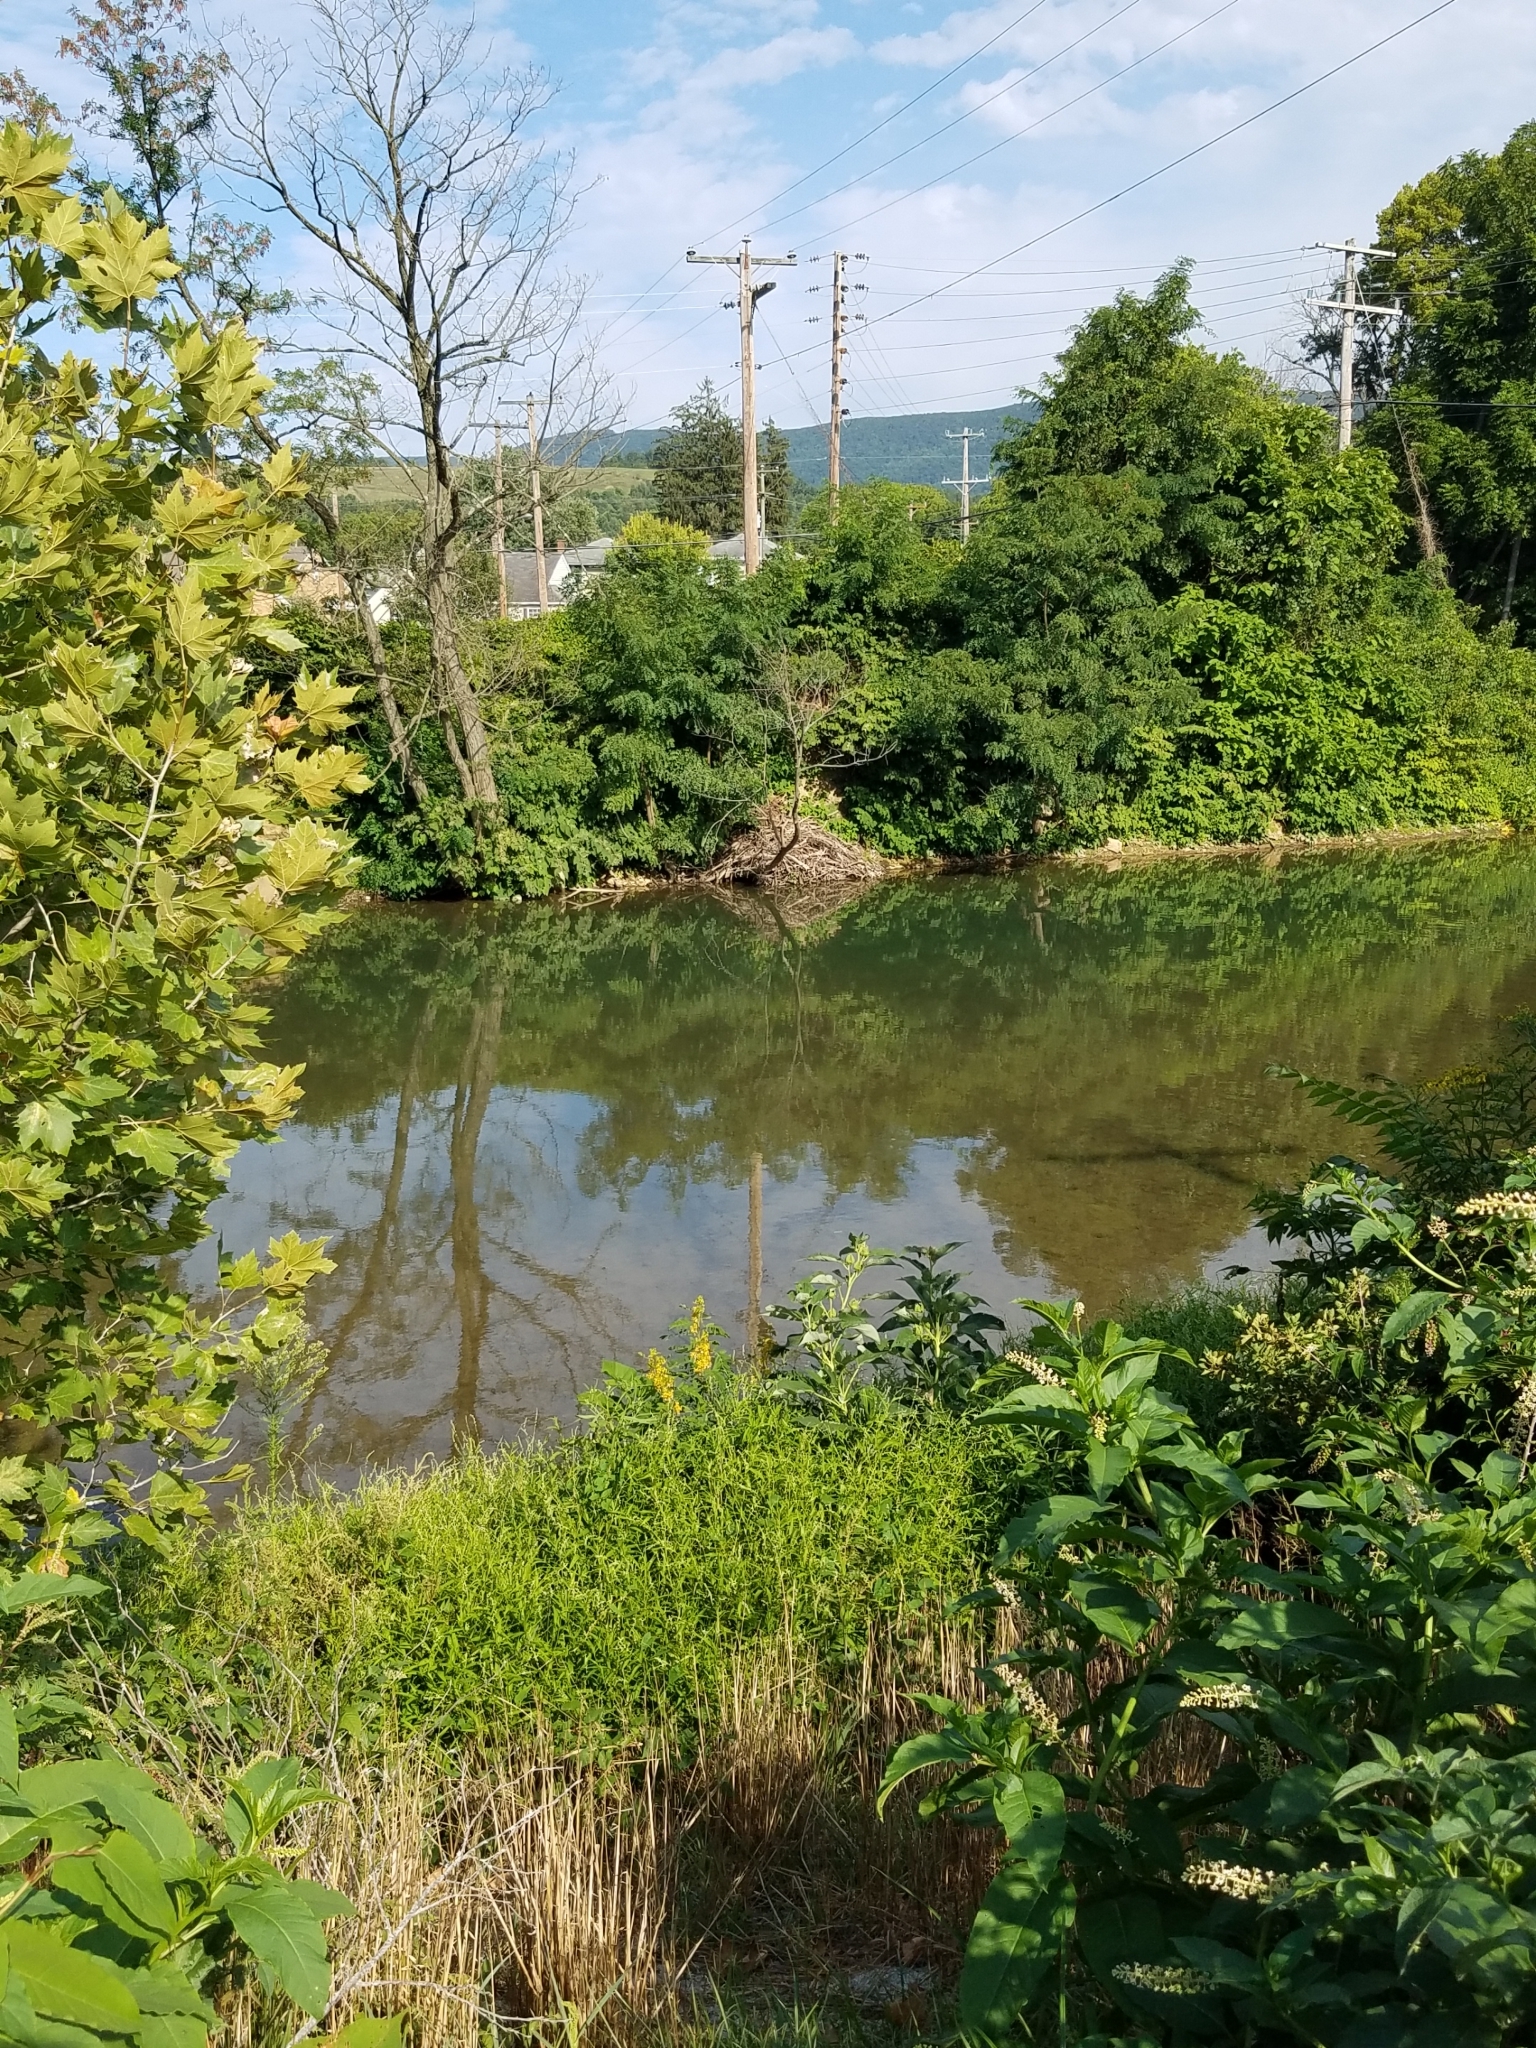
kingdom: Animalia
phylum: Chordata
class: Mammalia
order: Rodentia
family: Castoridae
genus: Castor
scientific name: Castor canadensis
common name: American beaver
